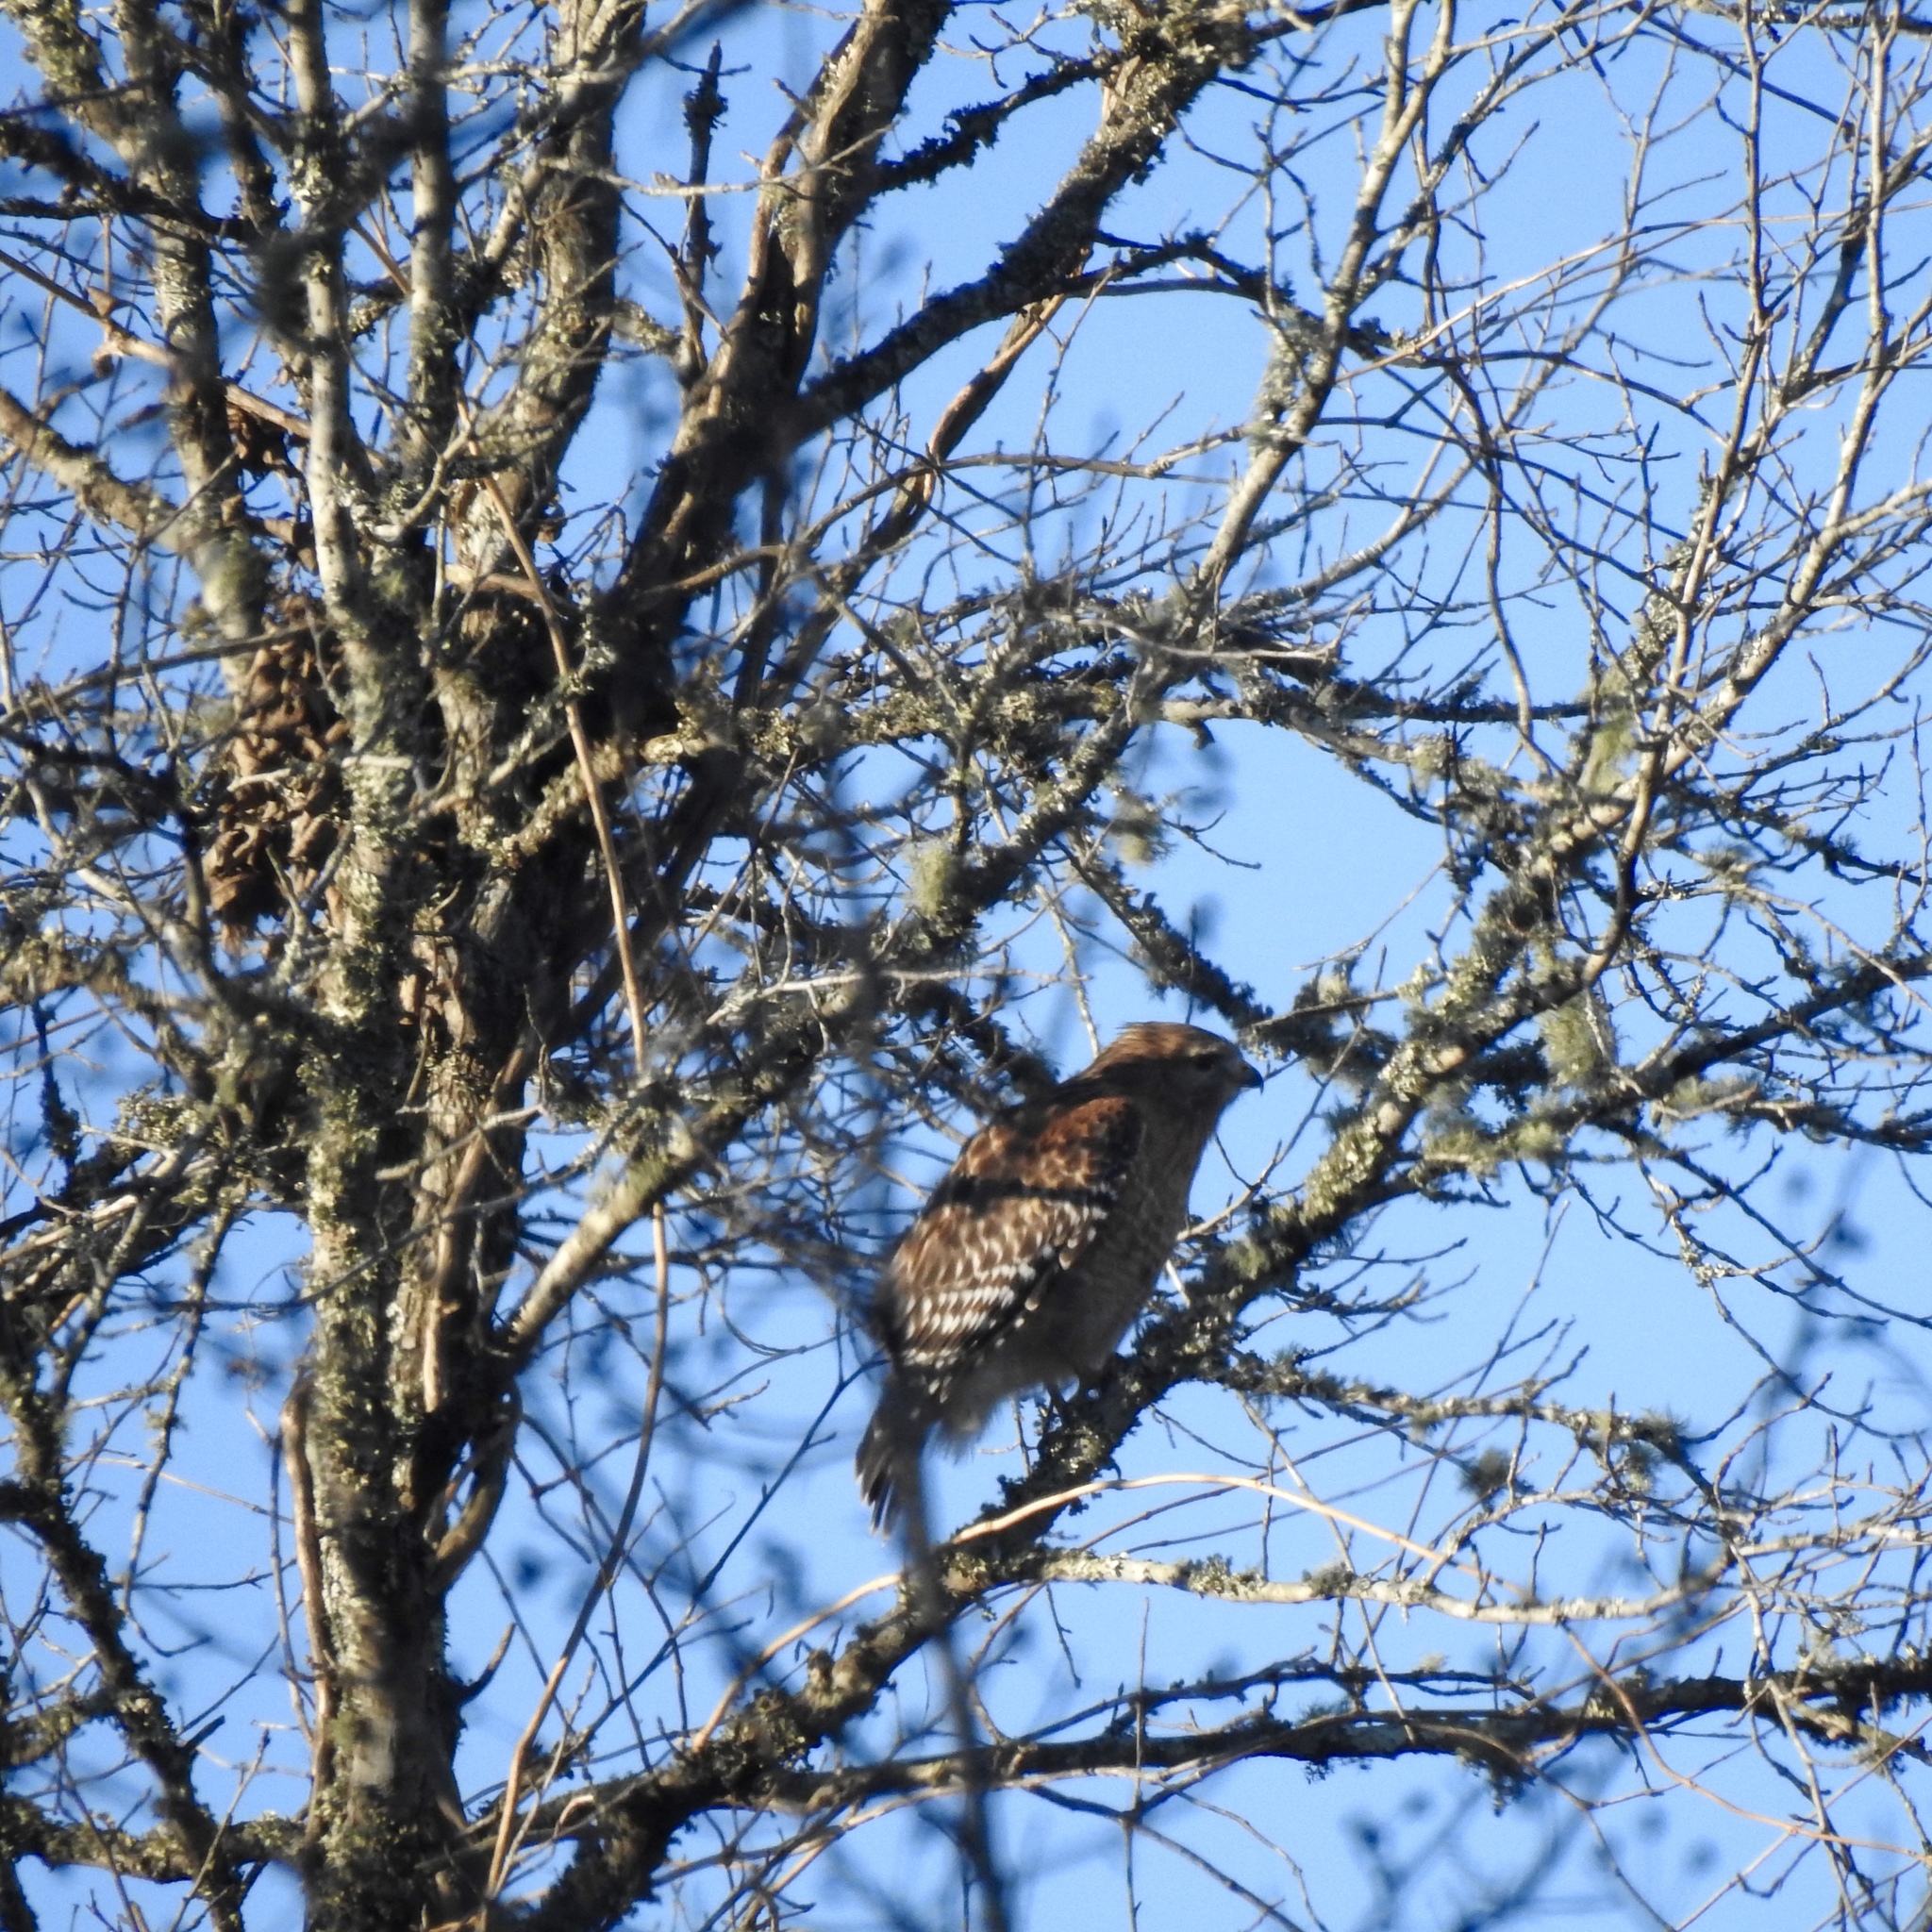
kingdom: Animalia
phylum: Chordata
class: Aves
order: Accipitriformes
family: Accipitridae
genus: Buteo
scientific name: Buteo lineatus
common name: Red-shouldered hawk
